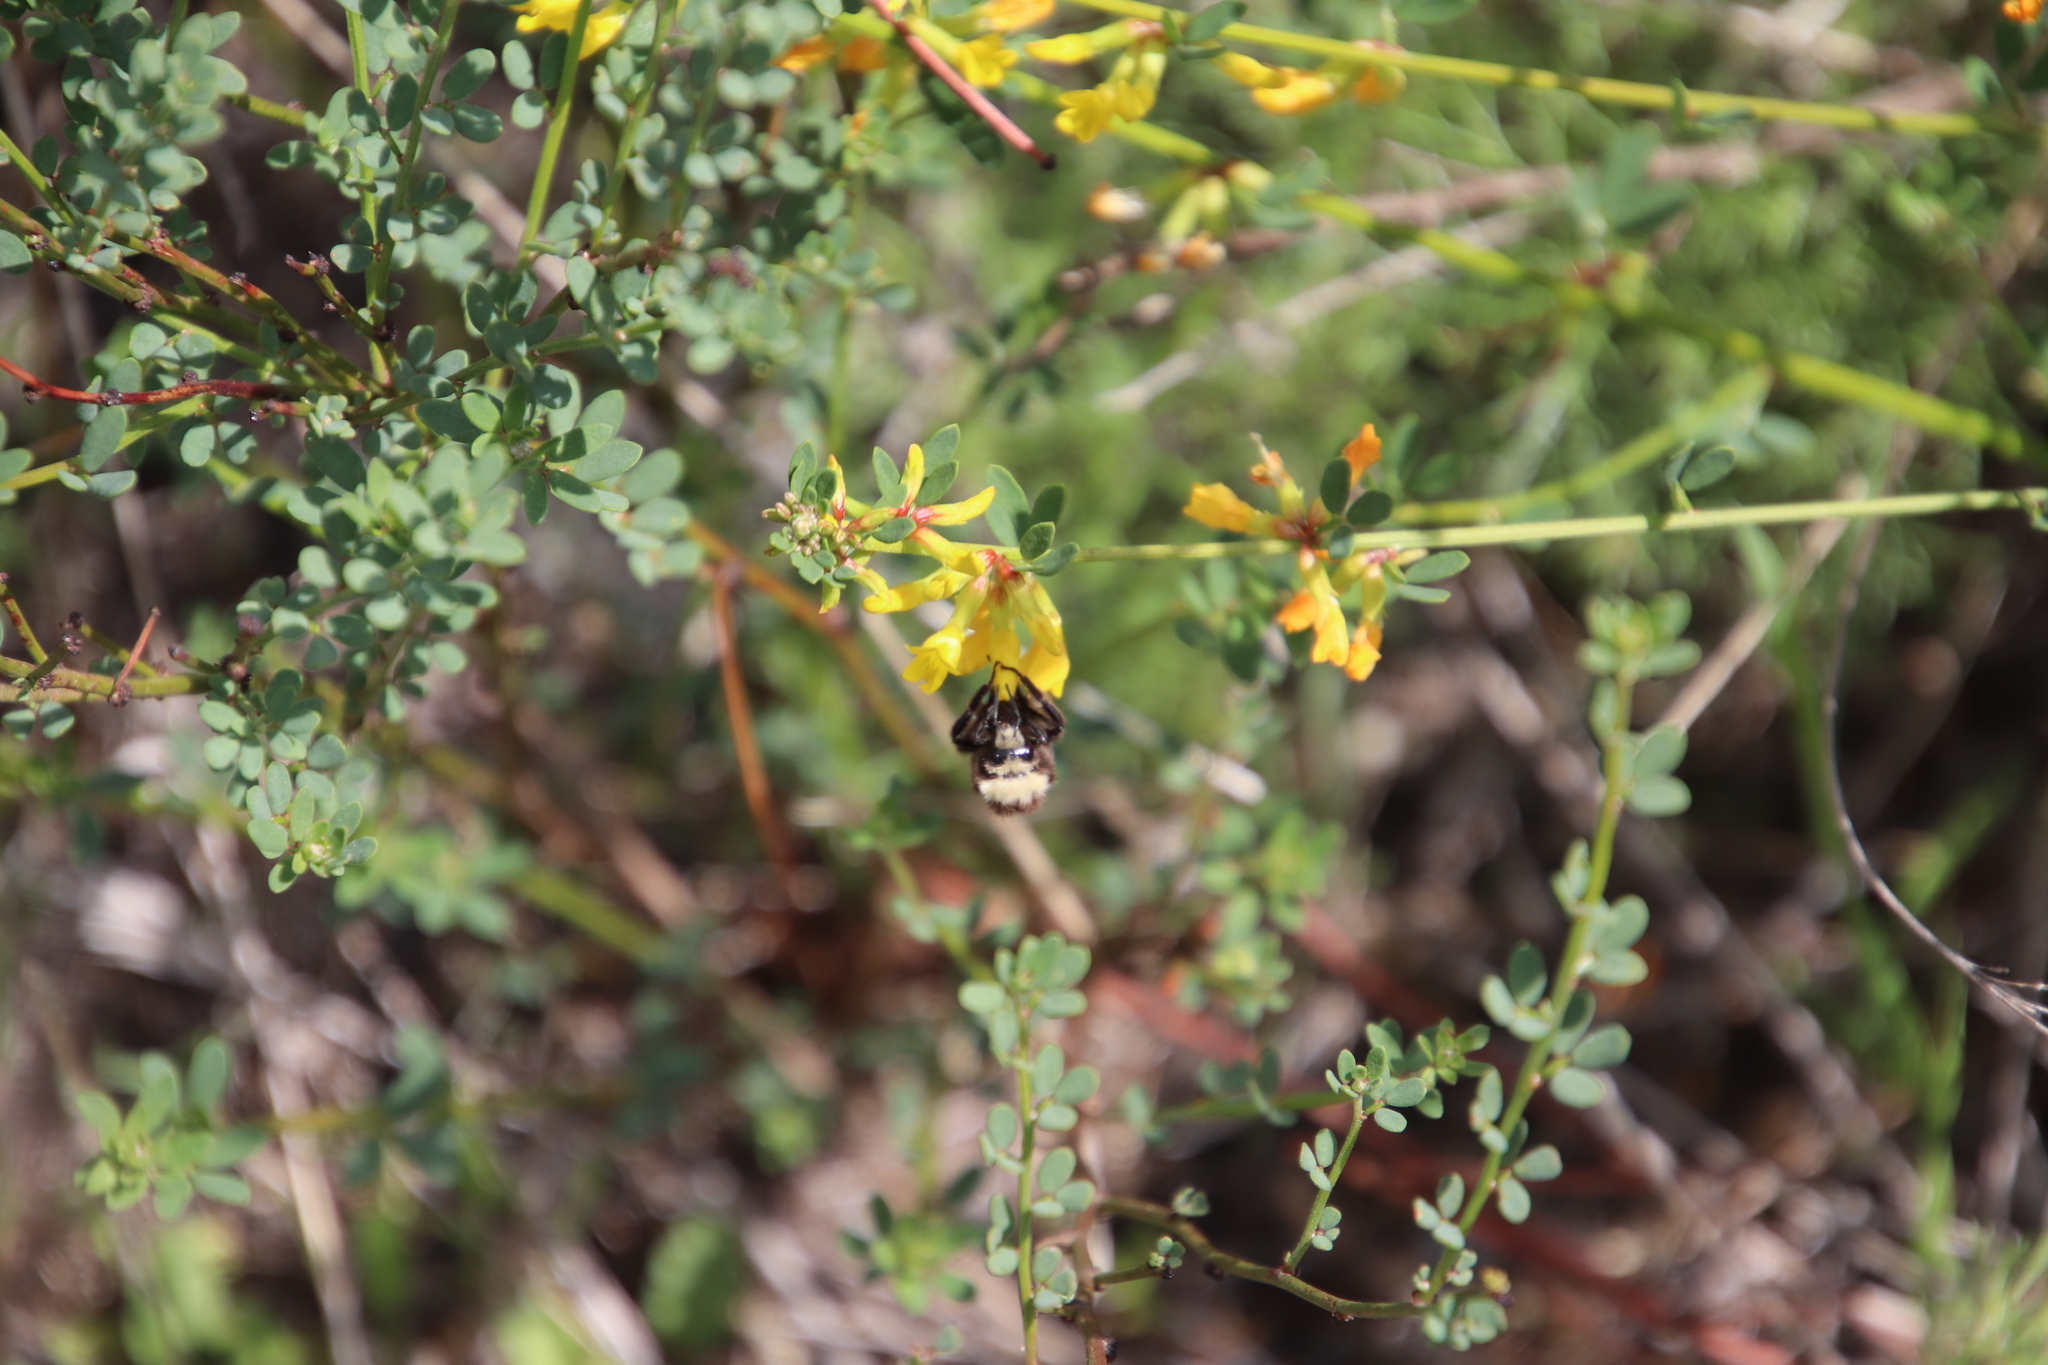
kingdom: Plantae
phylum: Tracheophyta
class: Magnoliopsida
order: Fabales
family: Fabaceae
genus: Acmispon
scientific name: Acmispon glaber
